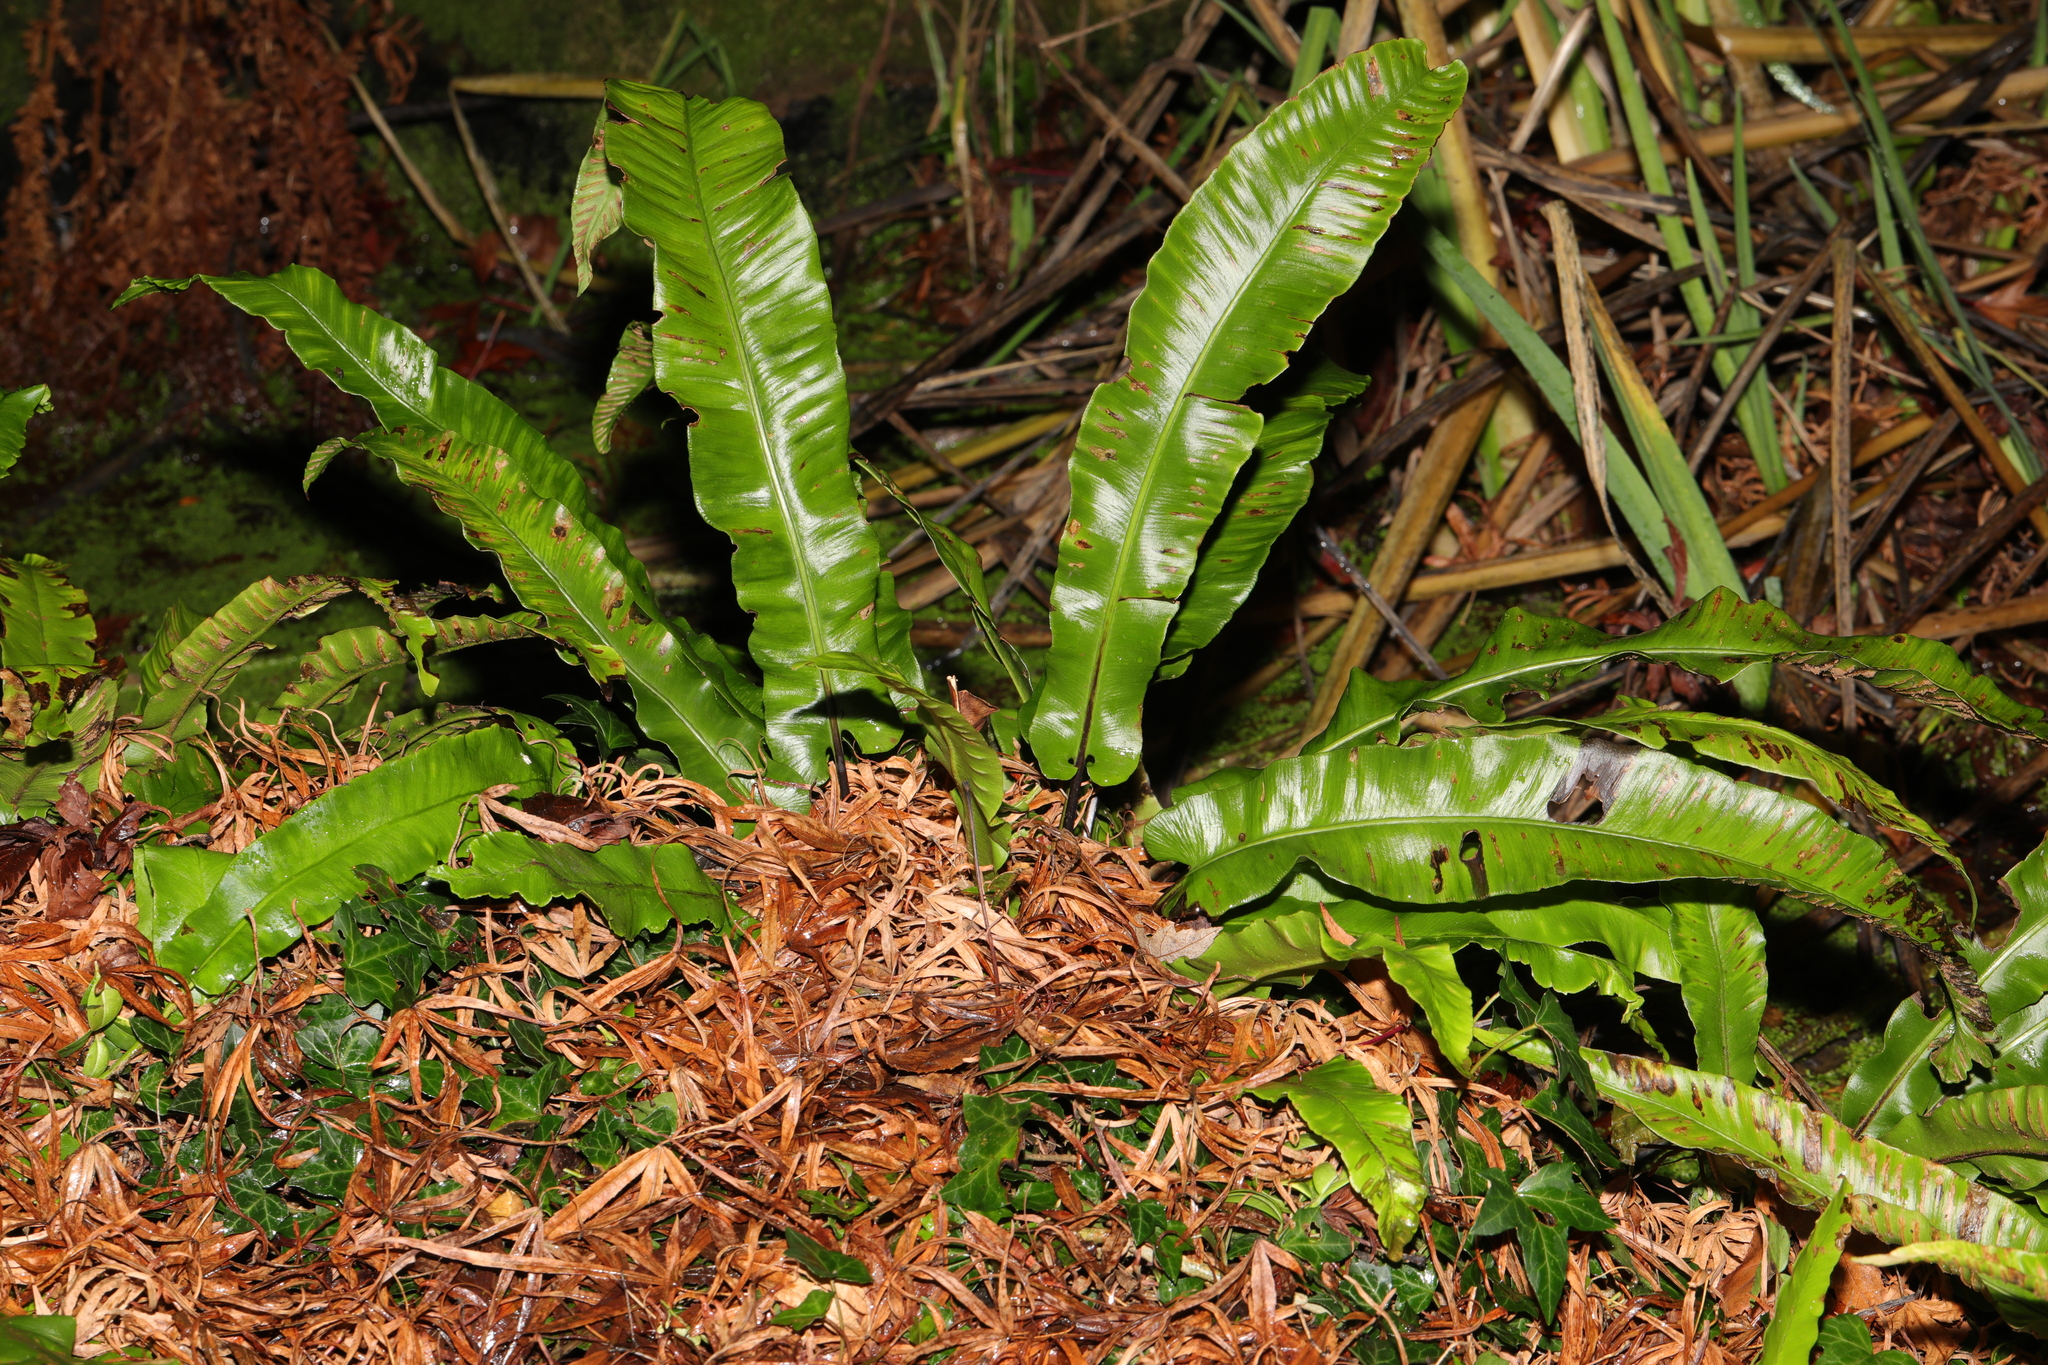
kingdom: Plantae
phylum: Tracheophyta
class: Polypodiopsida
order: Polypodiales
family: Aspleniaceae
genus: Asplenium
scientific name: Asplenium scolopendrium
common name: Hart's-tongue fern
